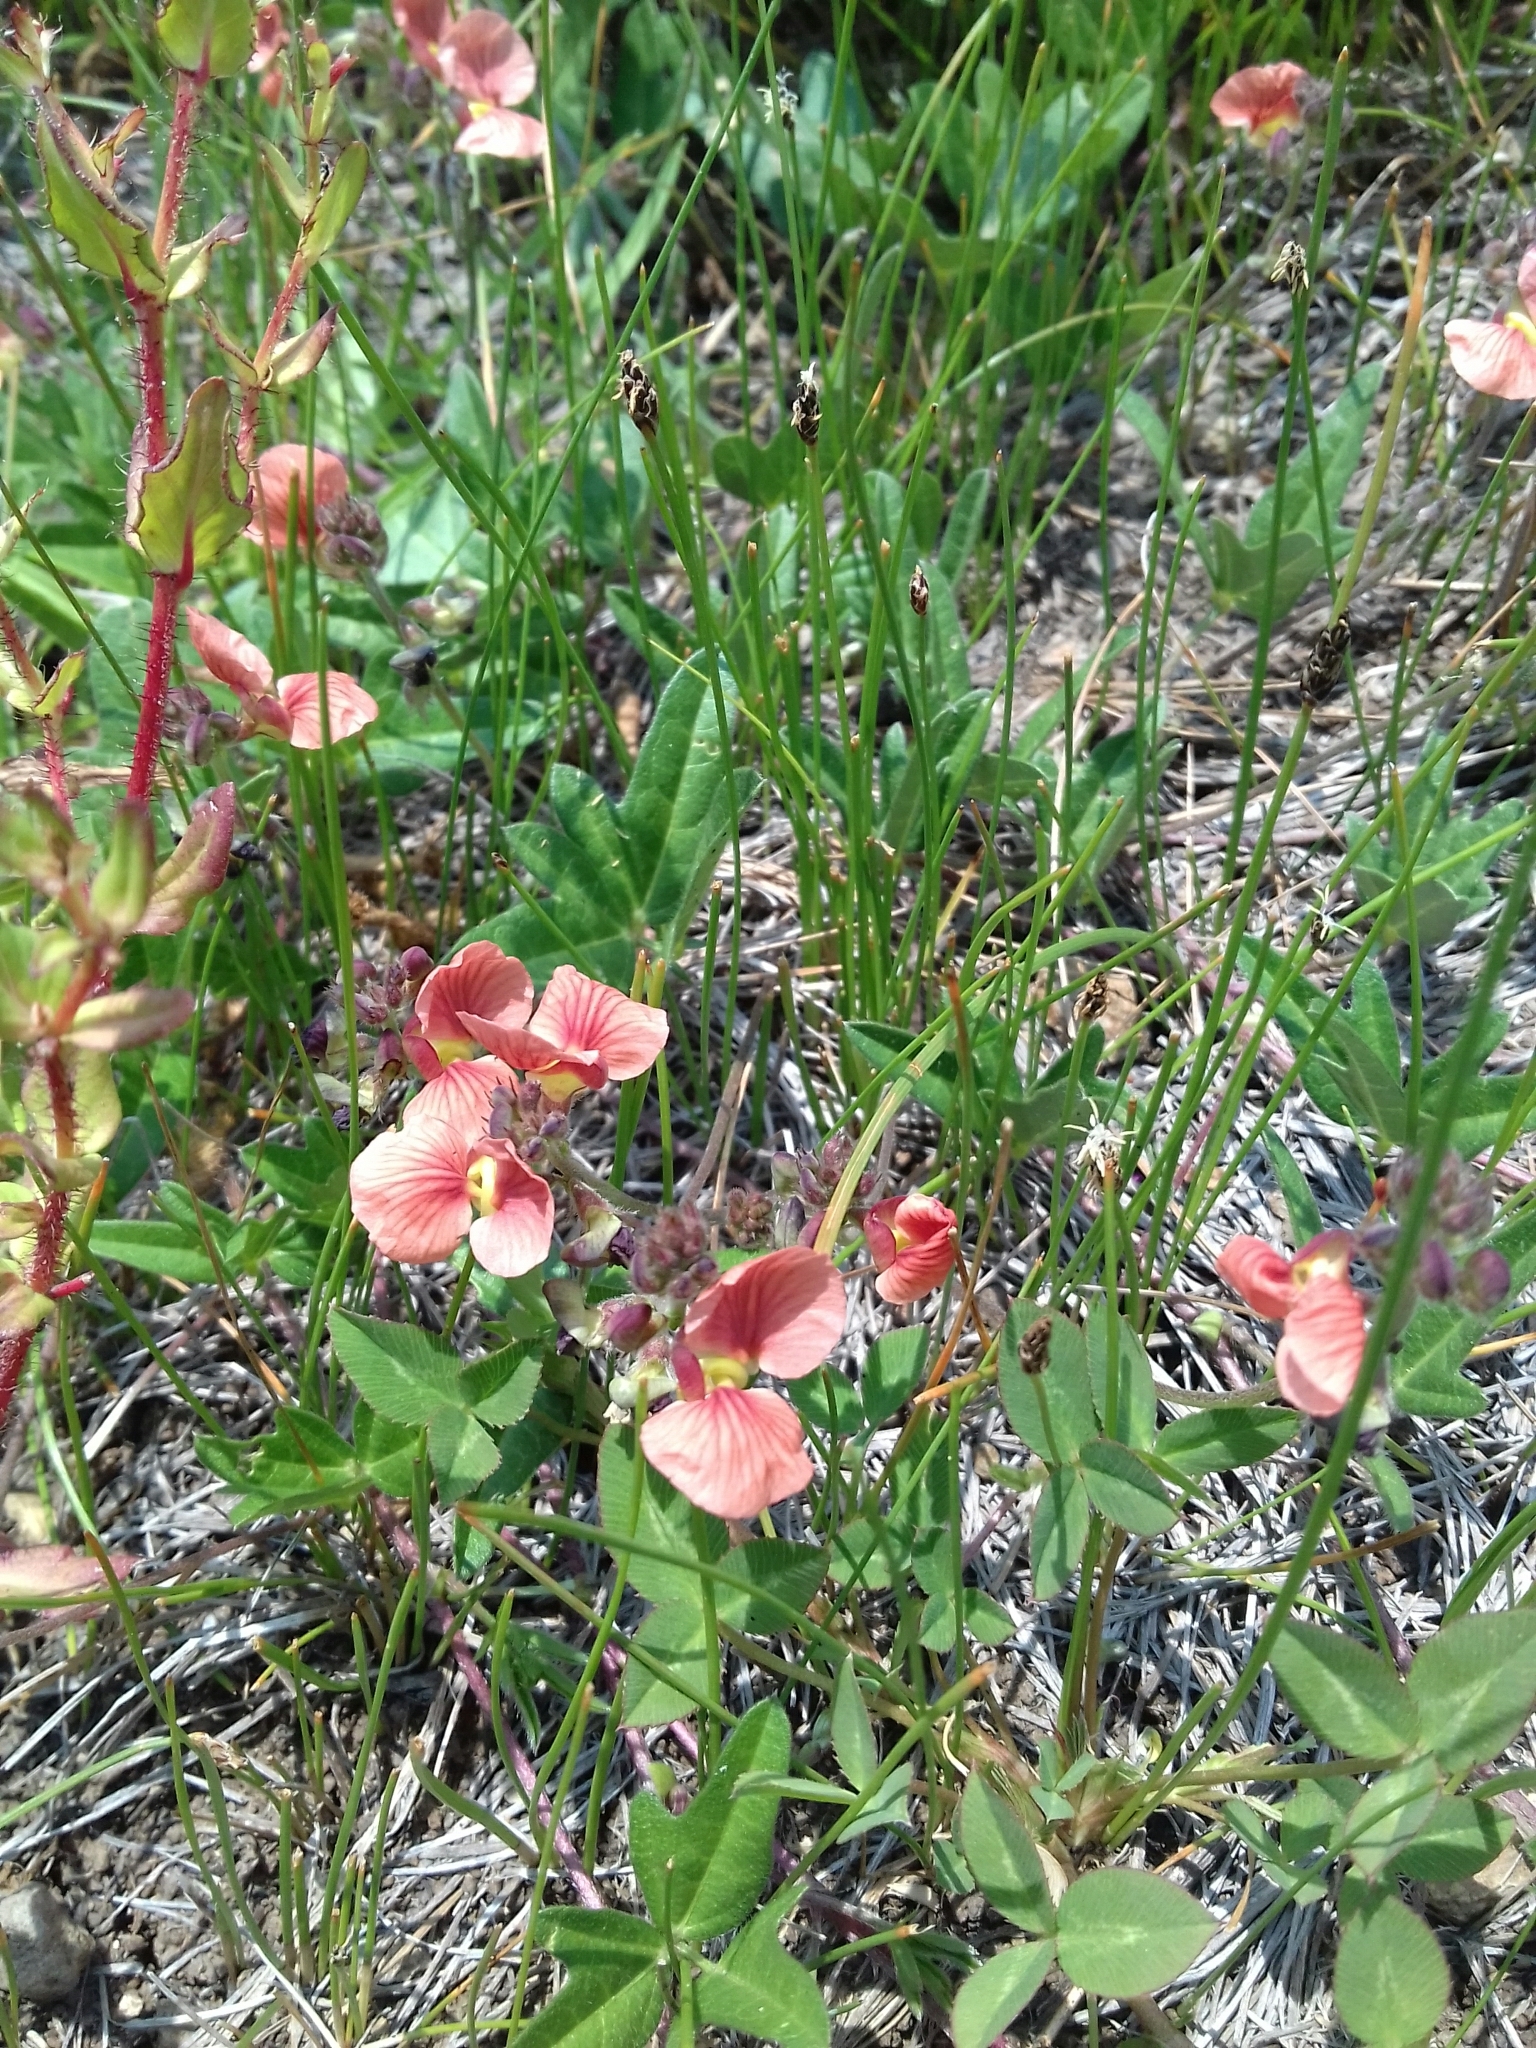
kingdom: Plantae
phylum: Tracheophyta
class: Magnoliopsida
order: Fabales
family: Fabaceae
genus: Macroptilium
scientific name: Macroptilium gibbosifolium
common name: Variableleaf bushbean
